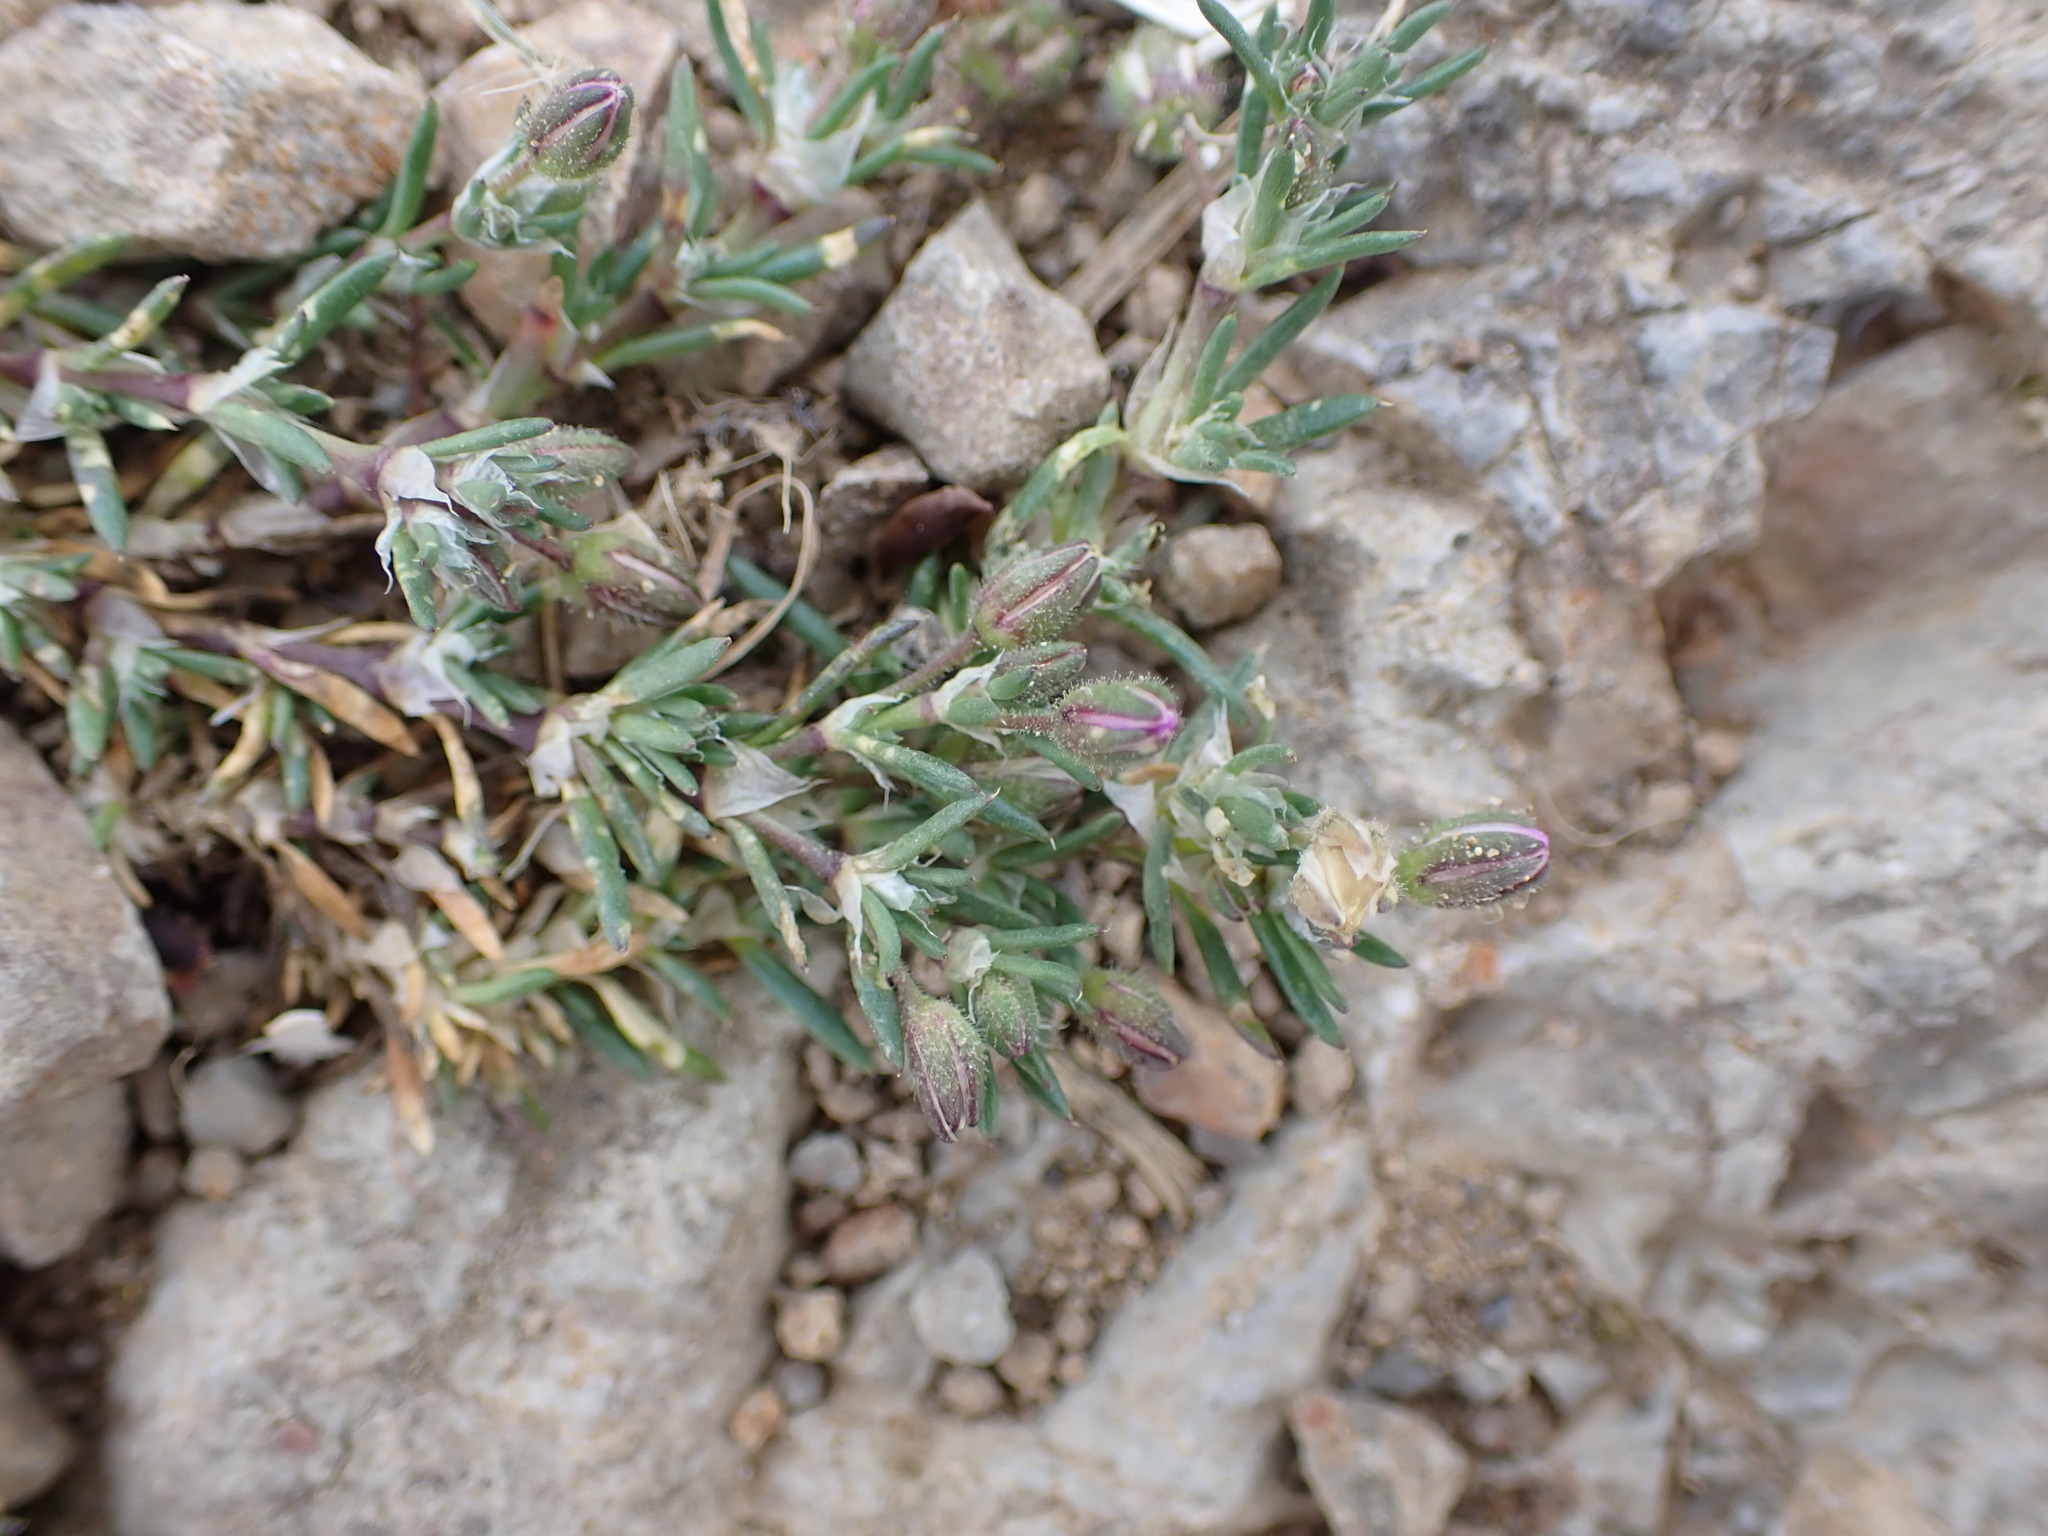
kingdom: Plantae
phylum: Tracheophyta
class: Magnoliopsida
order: Caryophyllales
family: Caryophyllaceae
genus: Spergularia
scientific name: Spergularia rubra
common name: Red sand-spurrey
